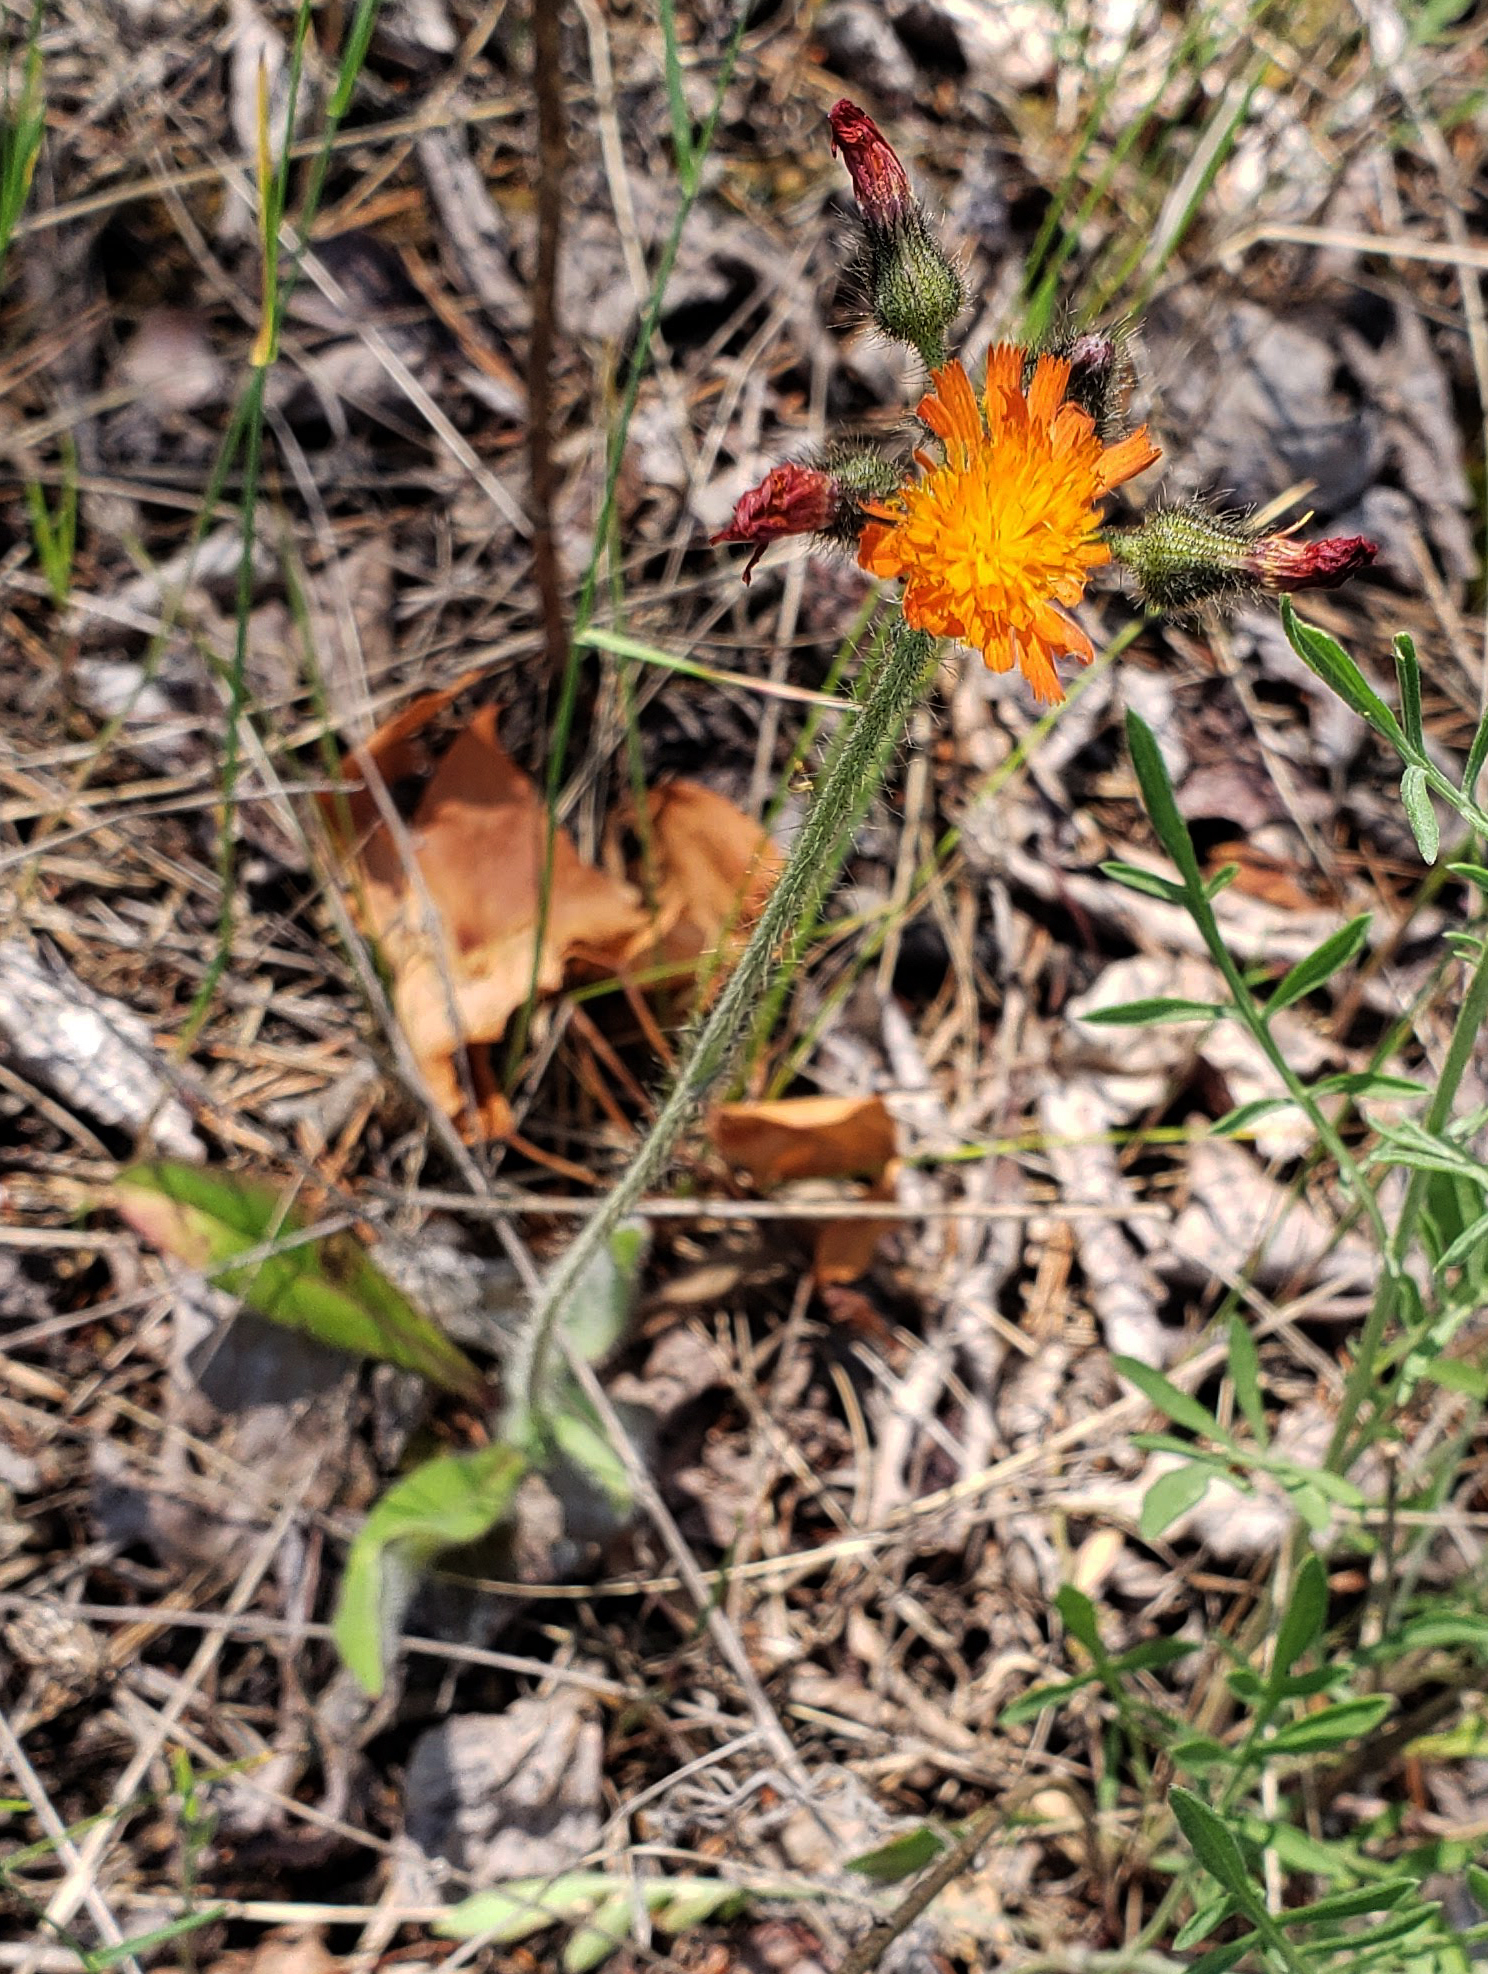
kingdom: Plantae
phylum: Tracheophyta
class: Magnoliopsida
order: Asterales
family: Asteraceae
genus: Pilosella
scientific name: Pilosella aurantiaca
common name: Fox-and-cubs
